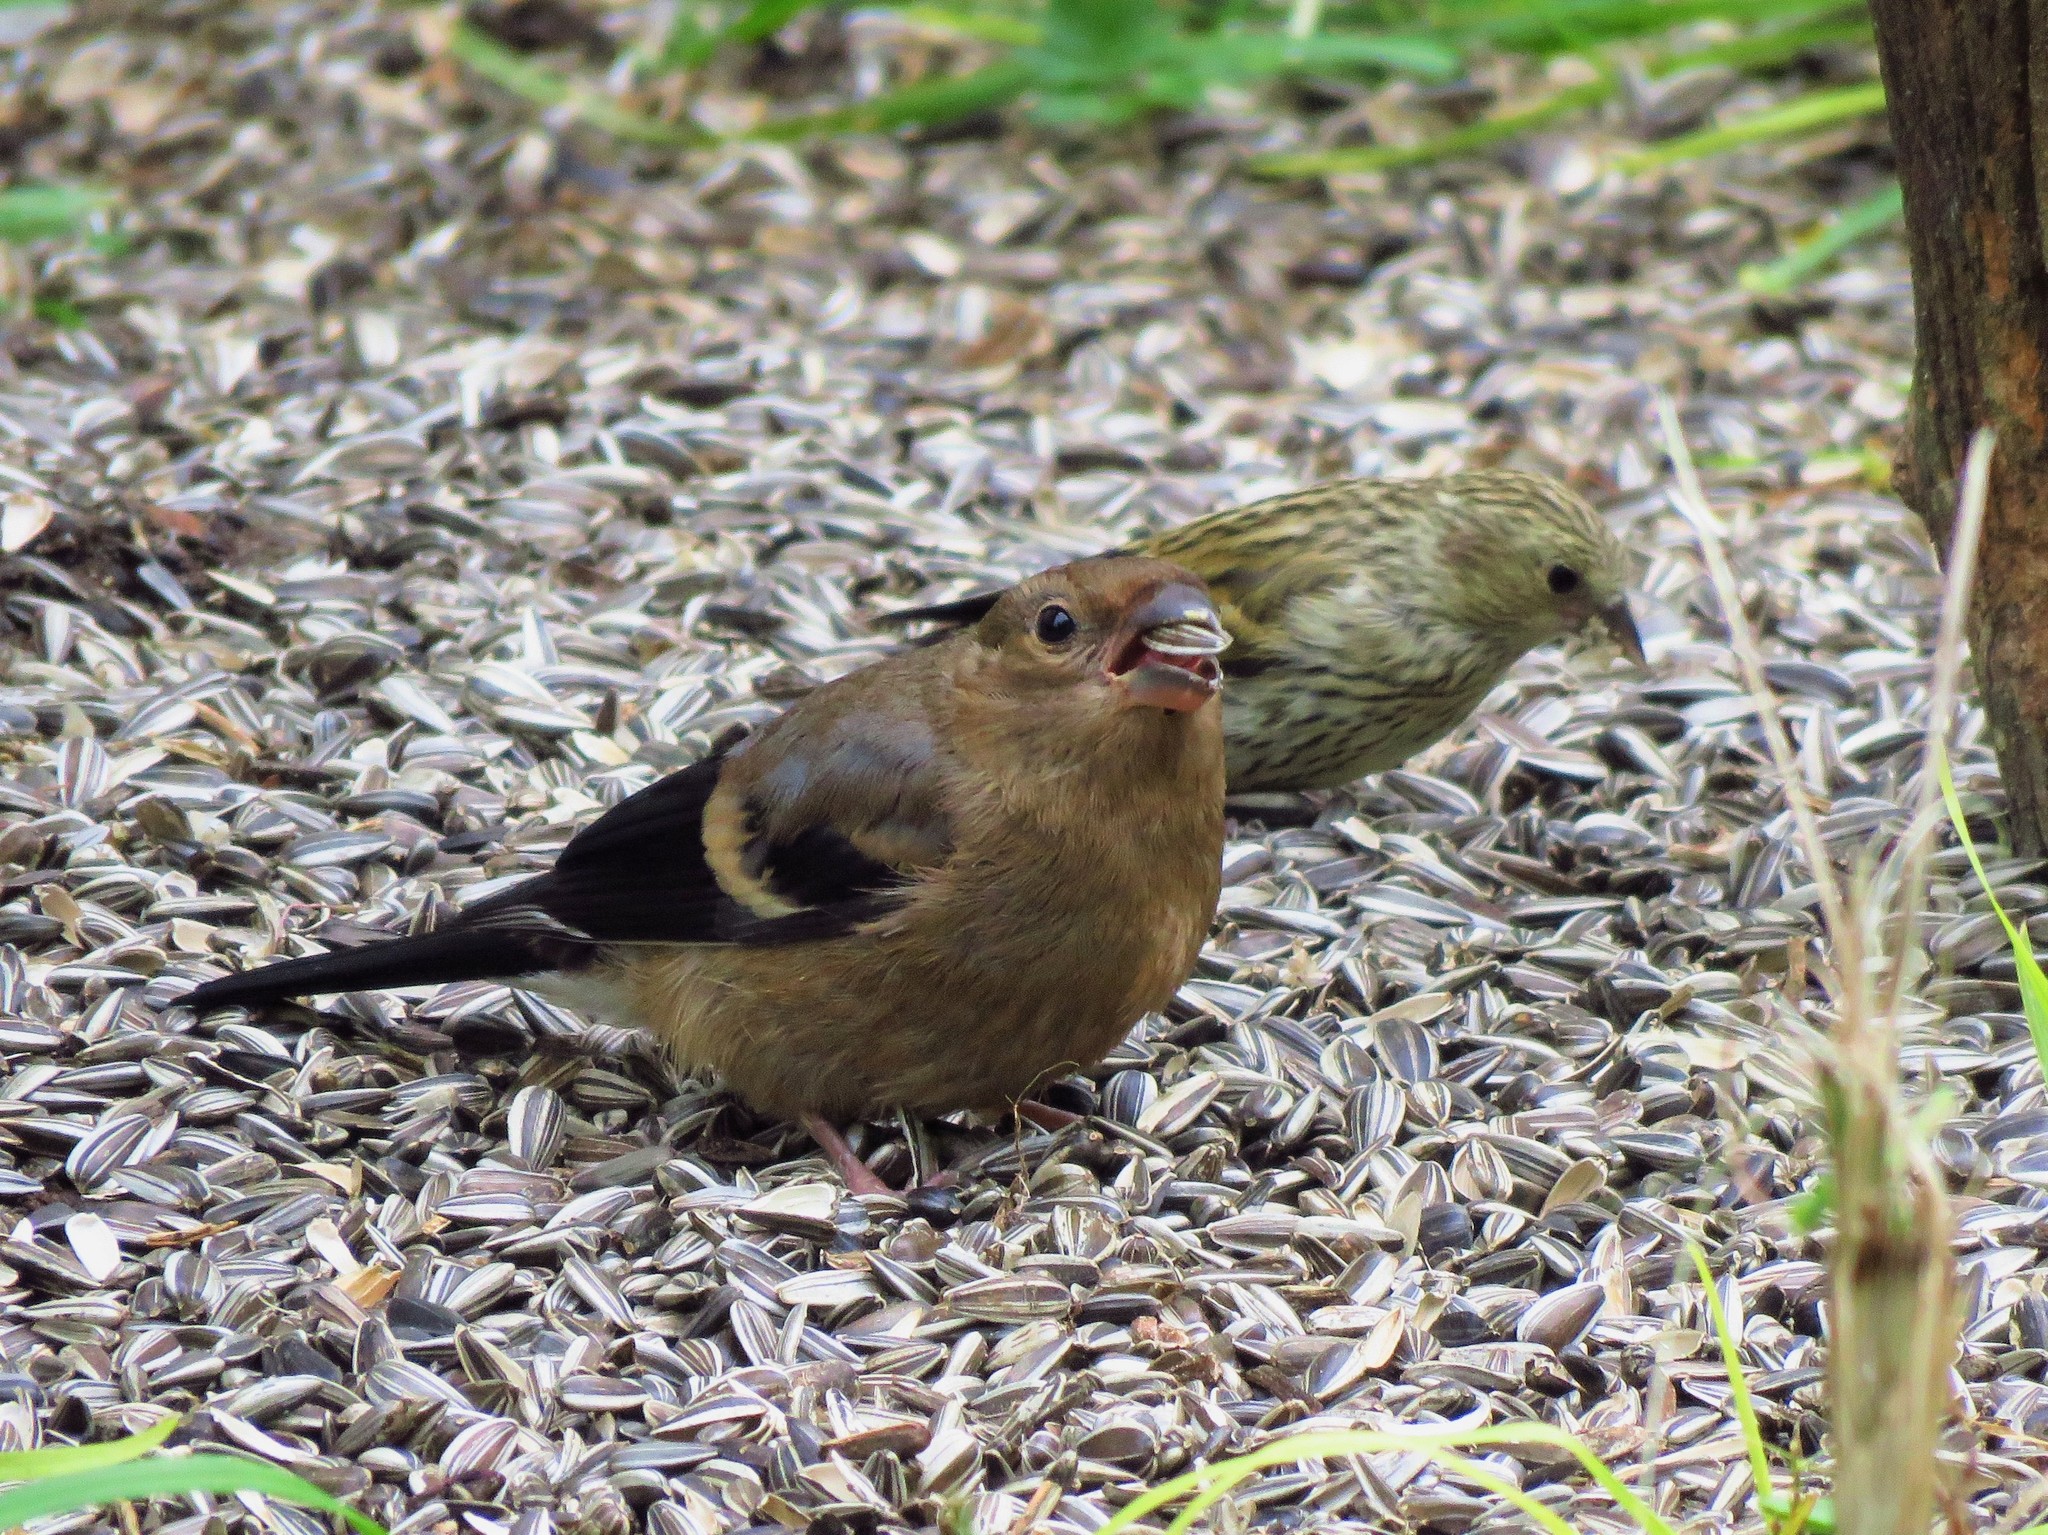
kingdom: Animalia
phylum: Chordata
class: Aves
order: Passeriformes
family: Fringillidae
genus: Pyrrhula
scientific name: Pyrrhula pyrrhula
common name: Eurasian bullfinch
